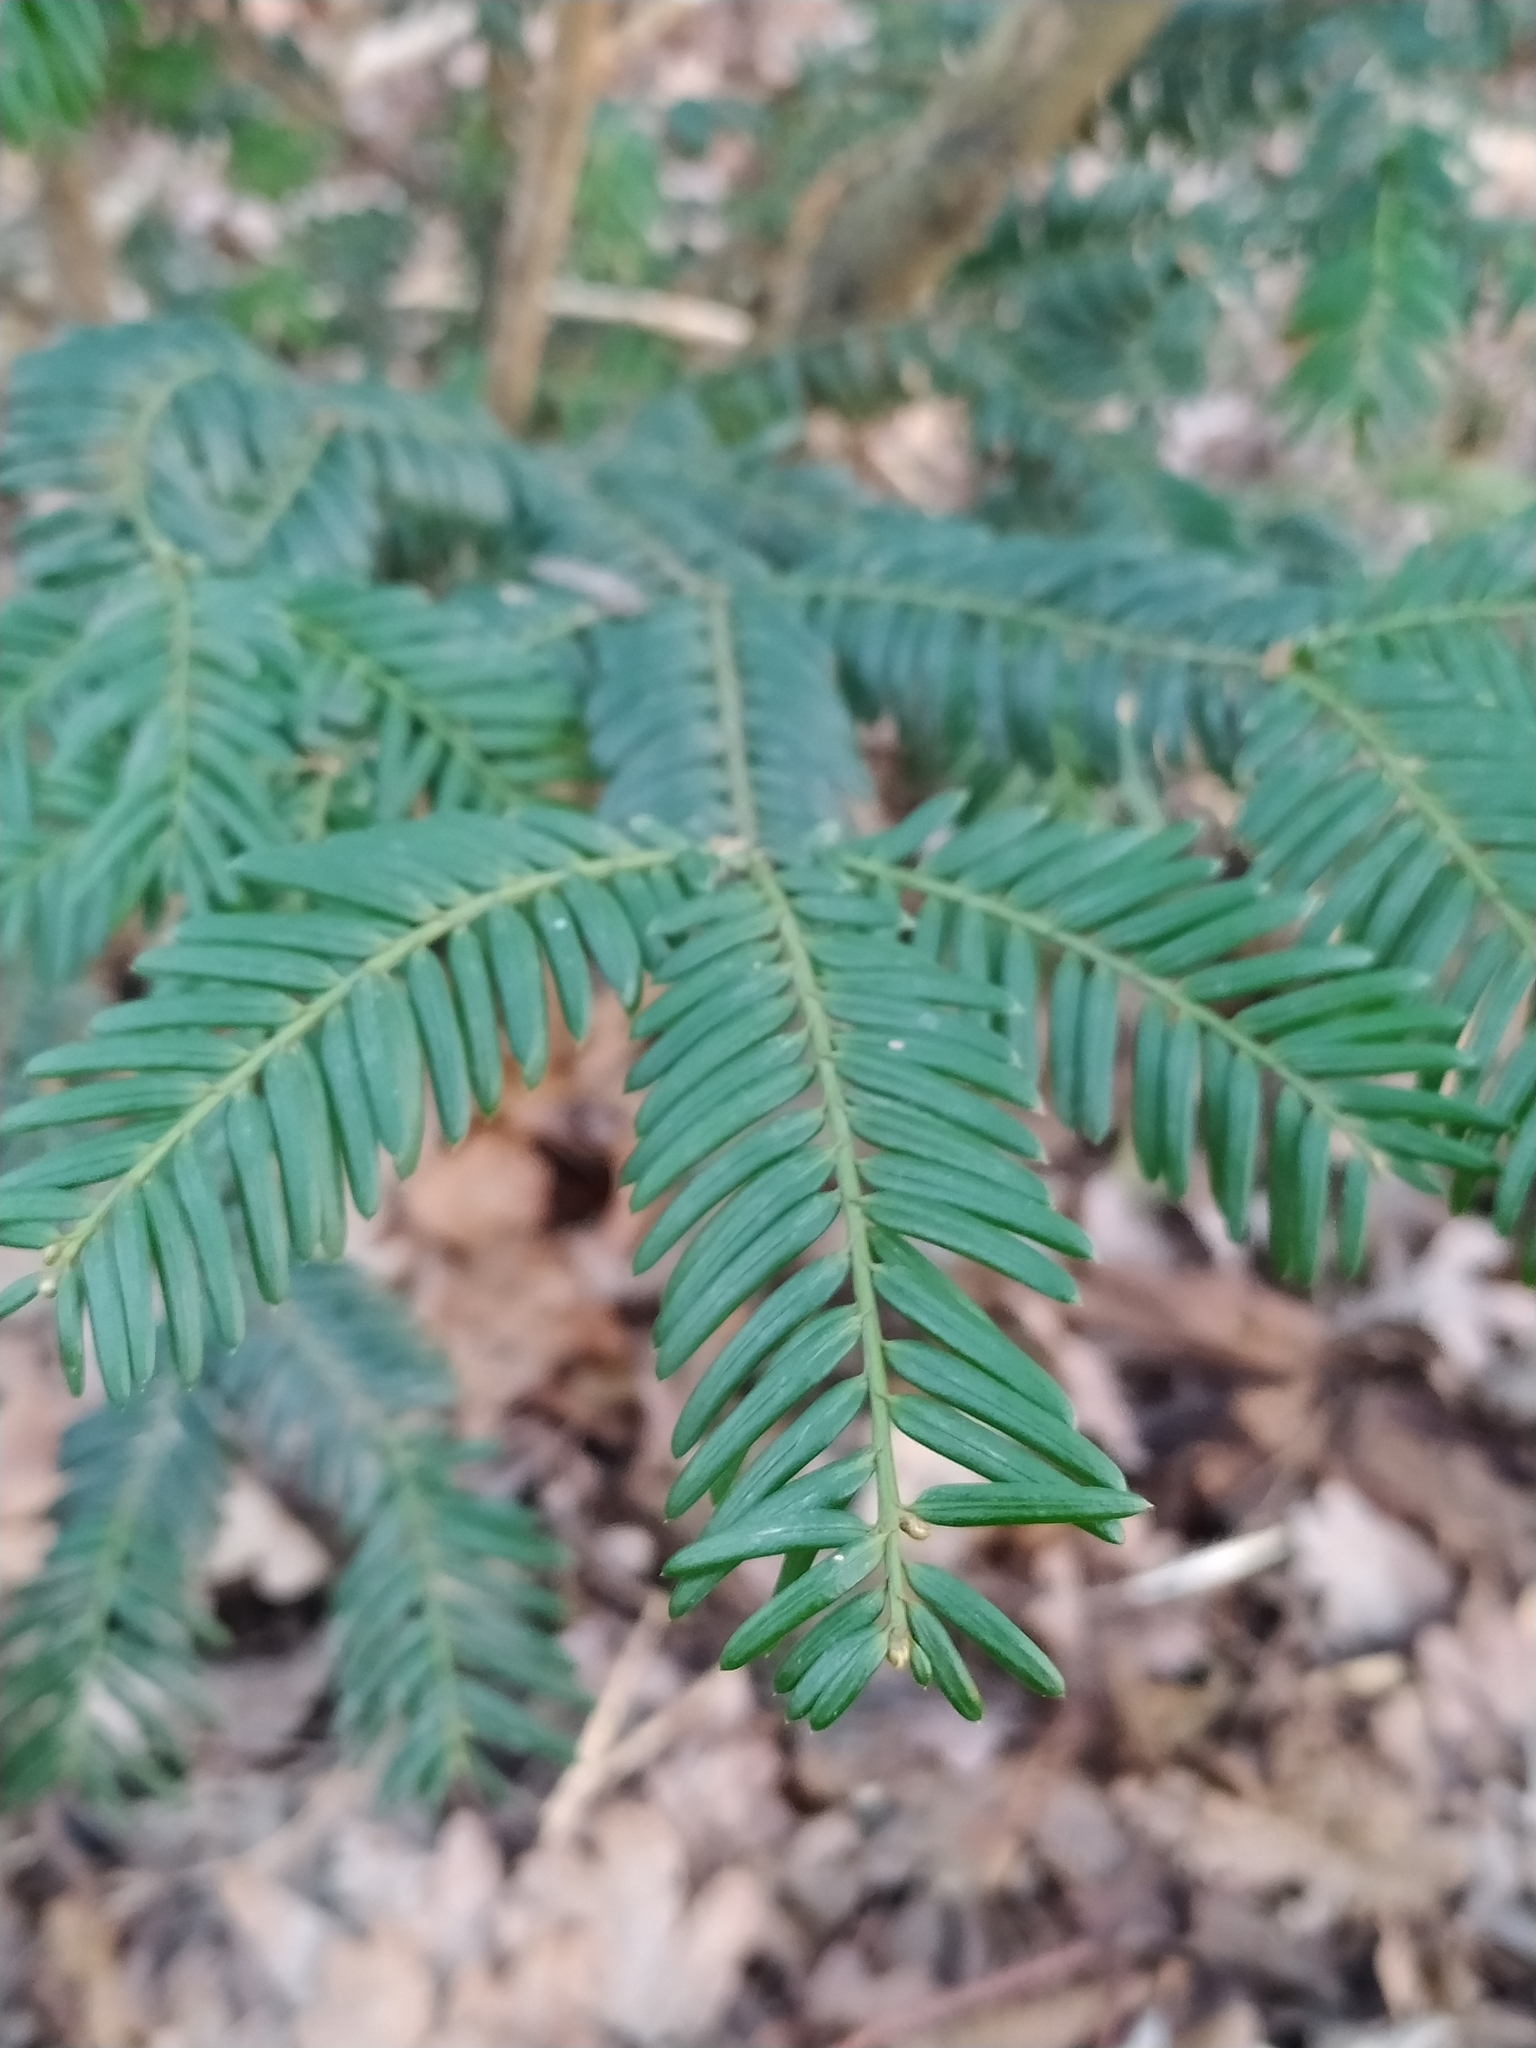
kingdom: Plantae
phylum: Tracheophyta
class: Pinopsida
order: Pinales
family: Taxaceae
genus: Taxus
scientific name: Taxus baccata
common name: Yew
